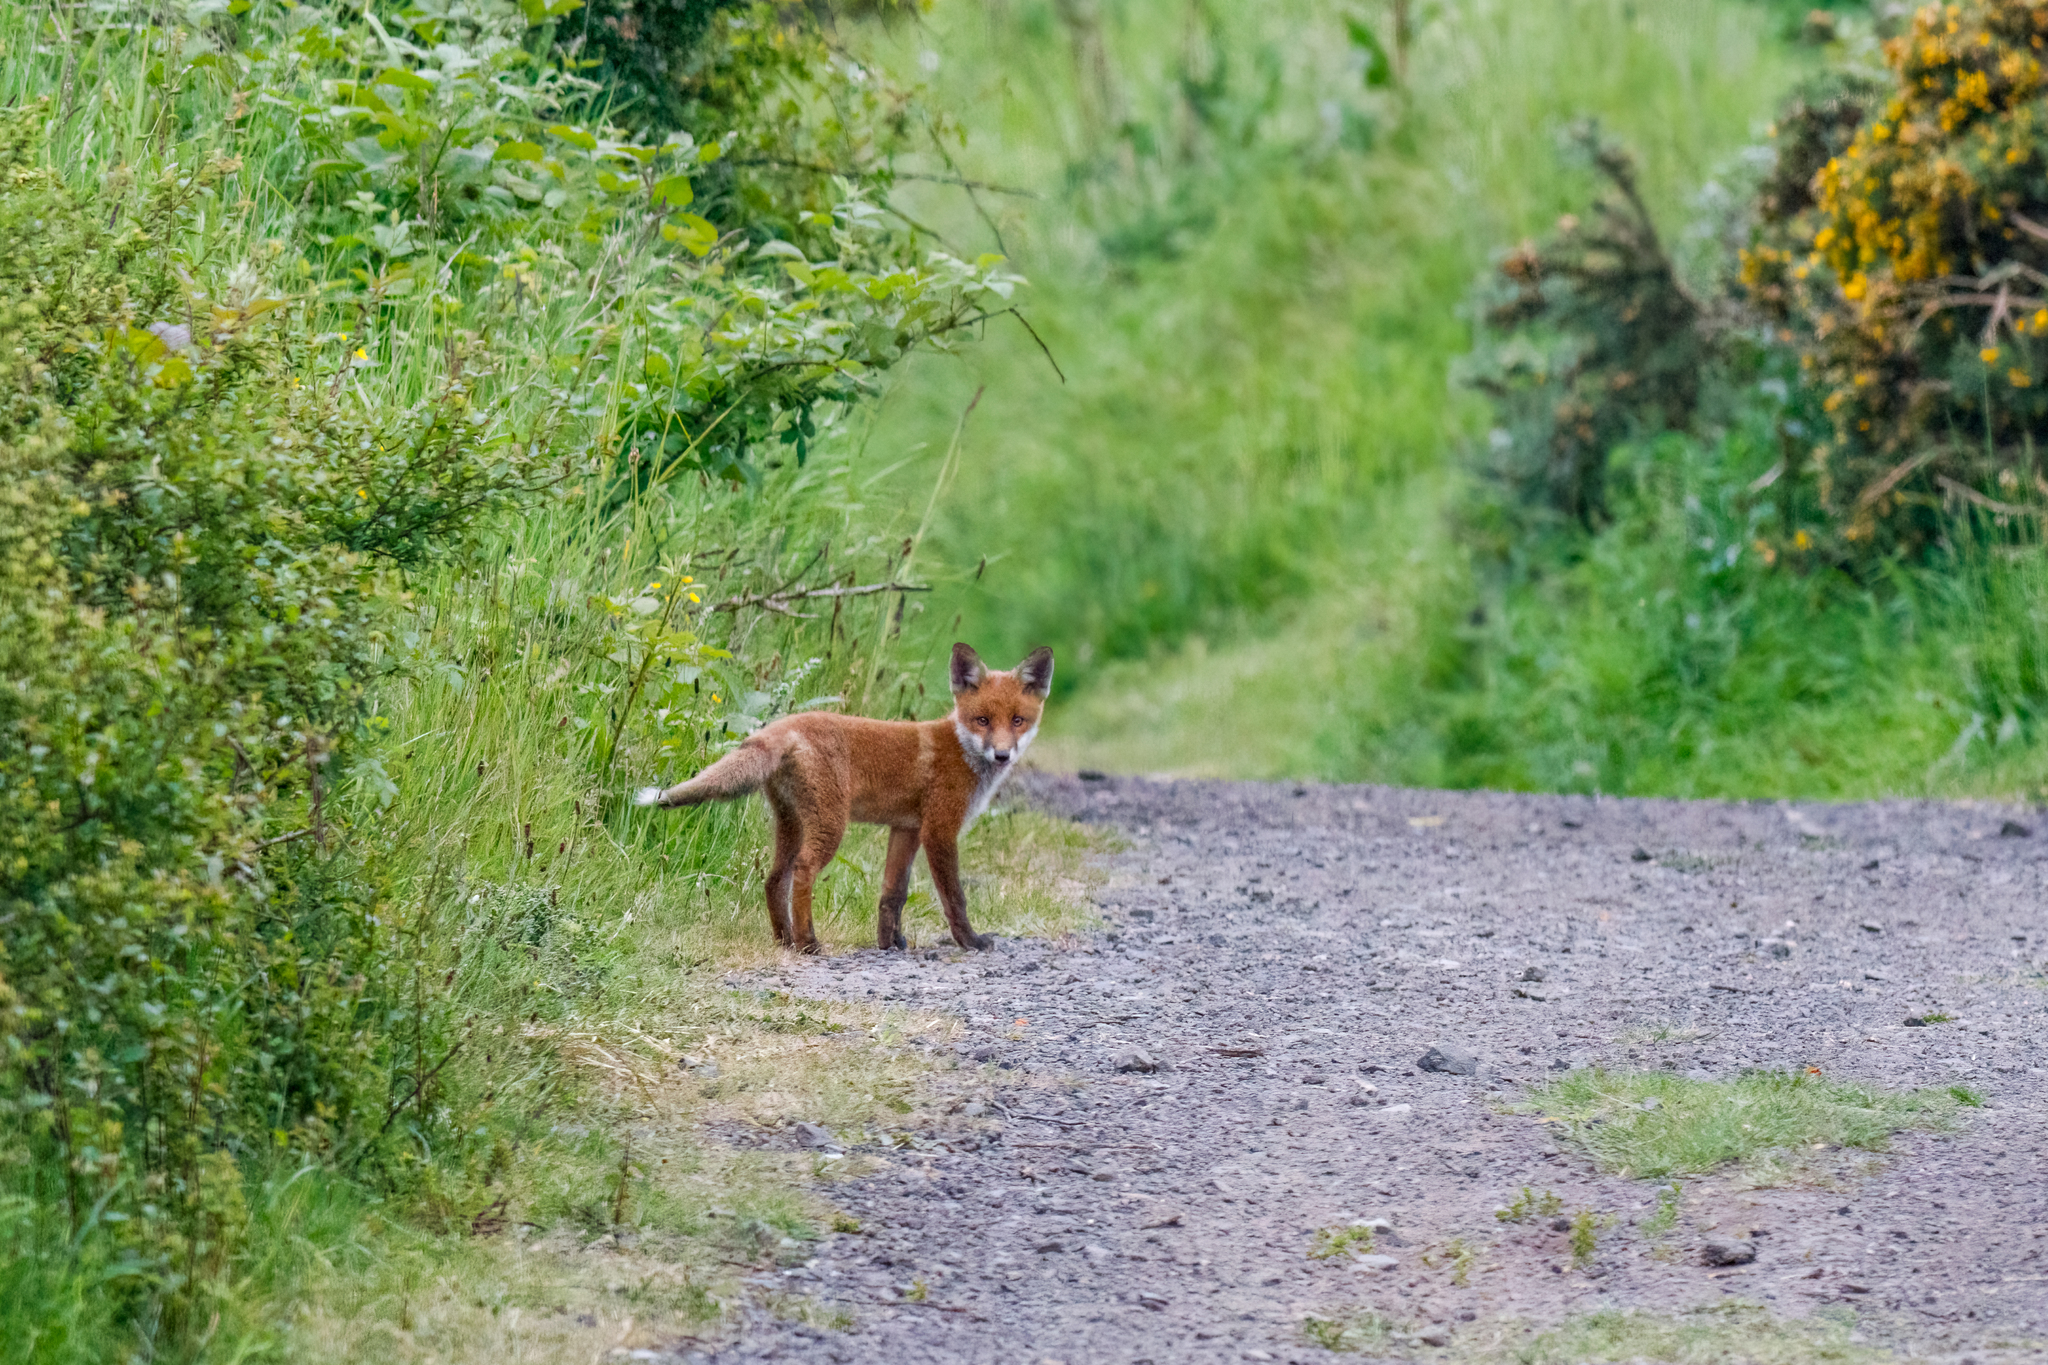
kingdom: Animalia
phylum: Chordata
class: Mammalia
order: Carnivora
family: Canidae
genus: Vulpes
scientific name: Vulpes vulpes
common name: Red fox
